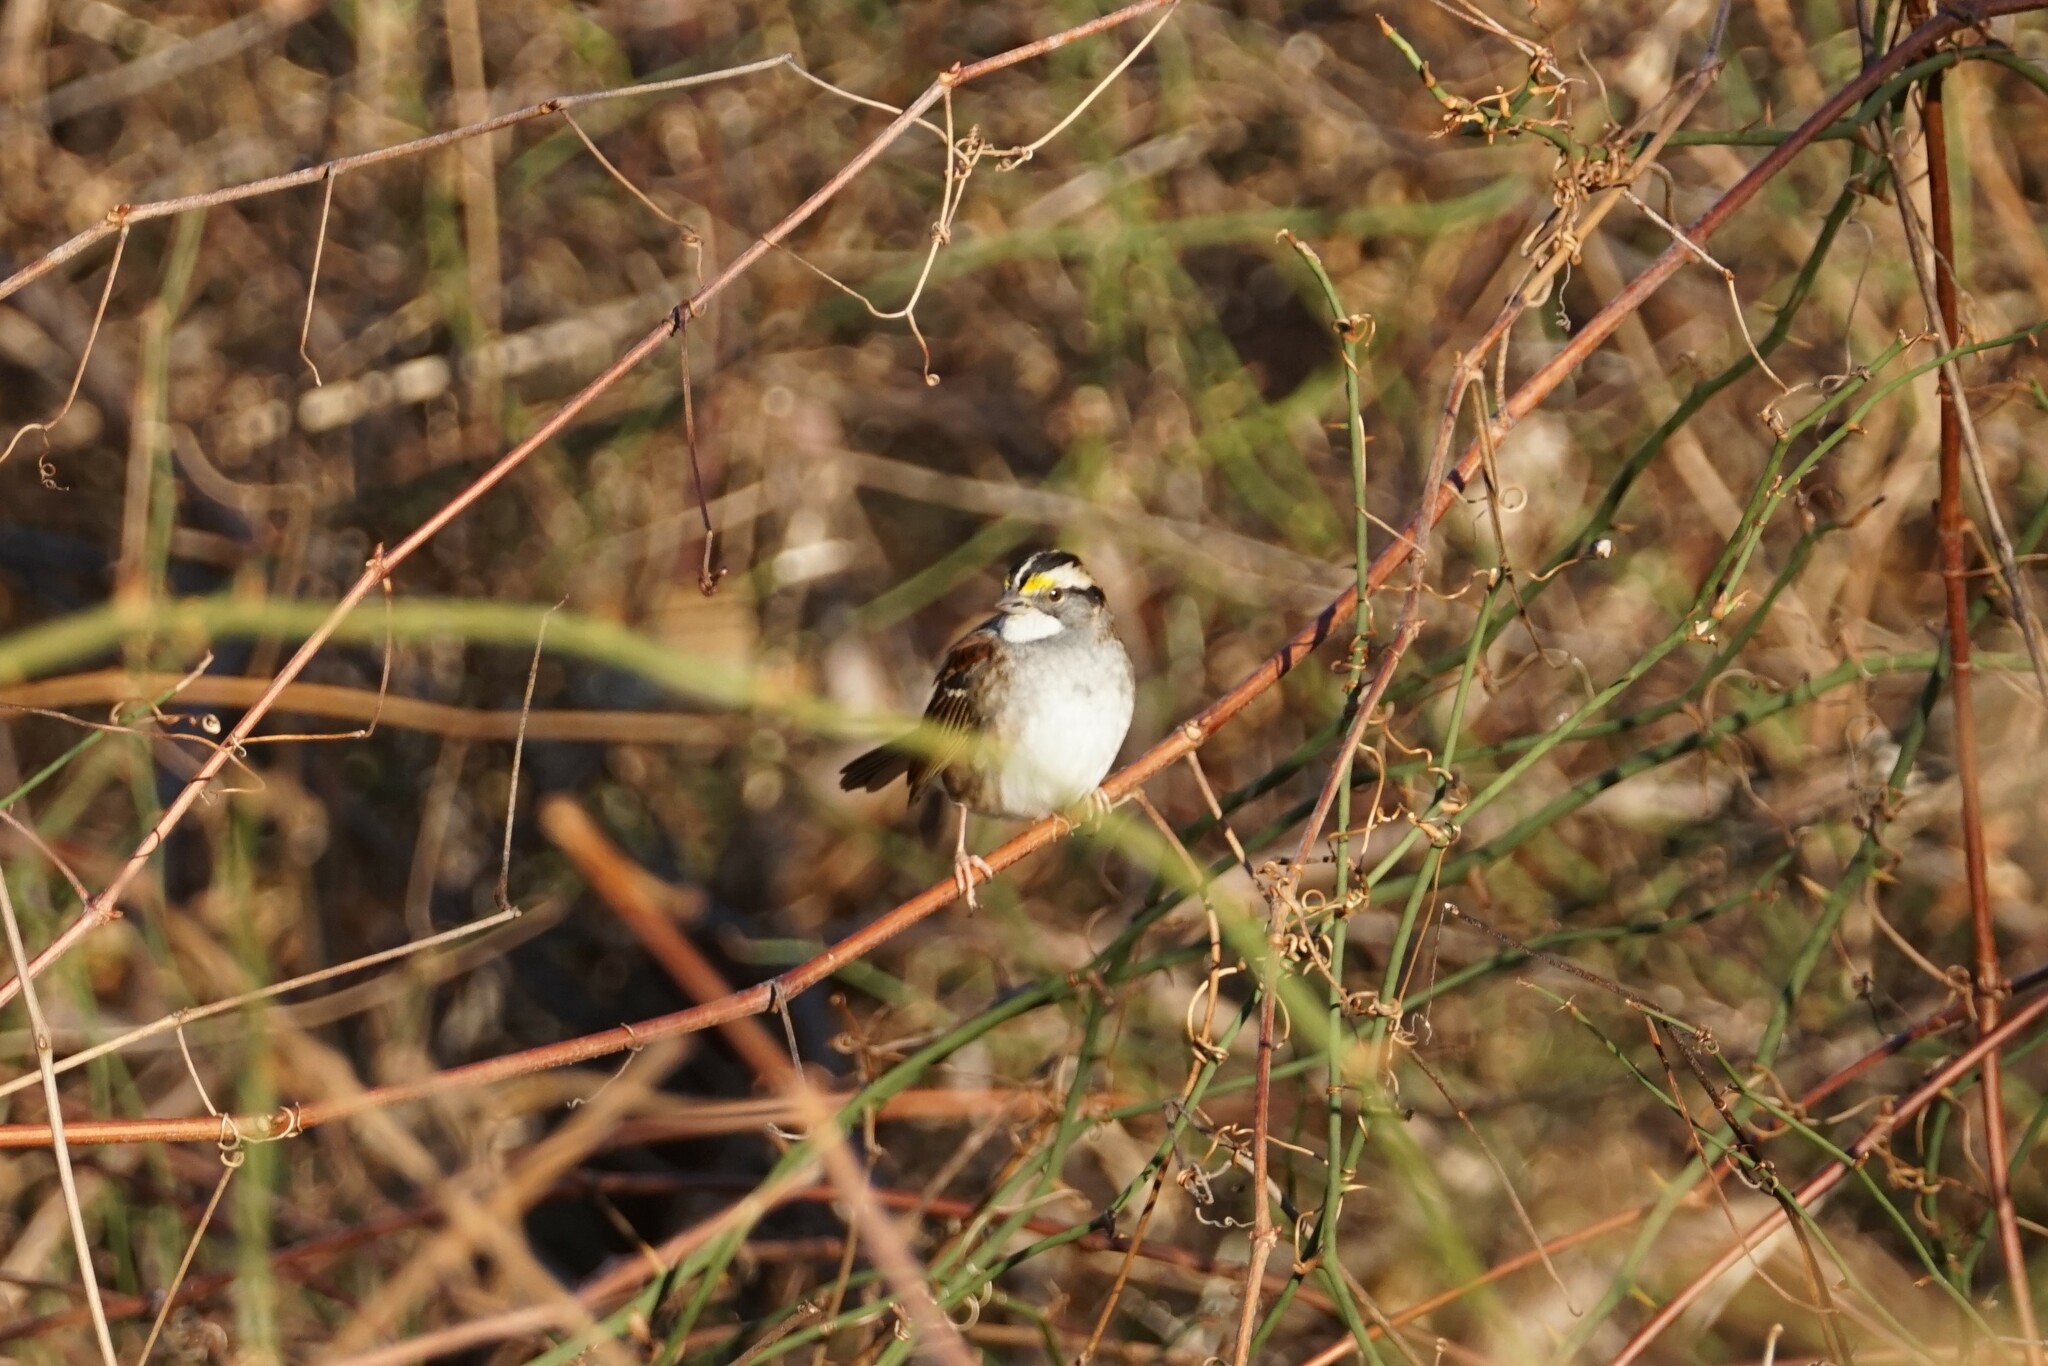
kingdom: Animalia
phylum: Chordata
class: Aves
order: Passeriformes
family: Passerellidae
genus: Zonotrichia
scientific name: Zonotrichia albicollis
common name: White-throated sparrow
